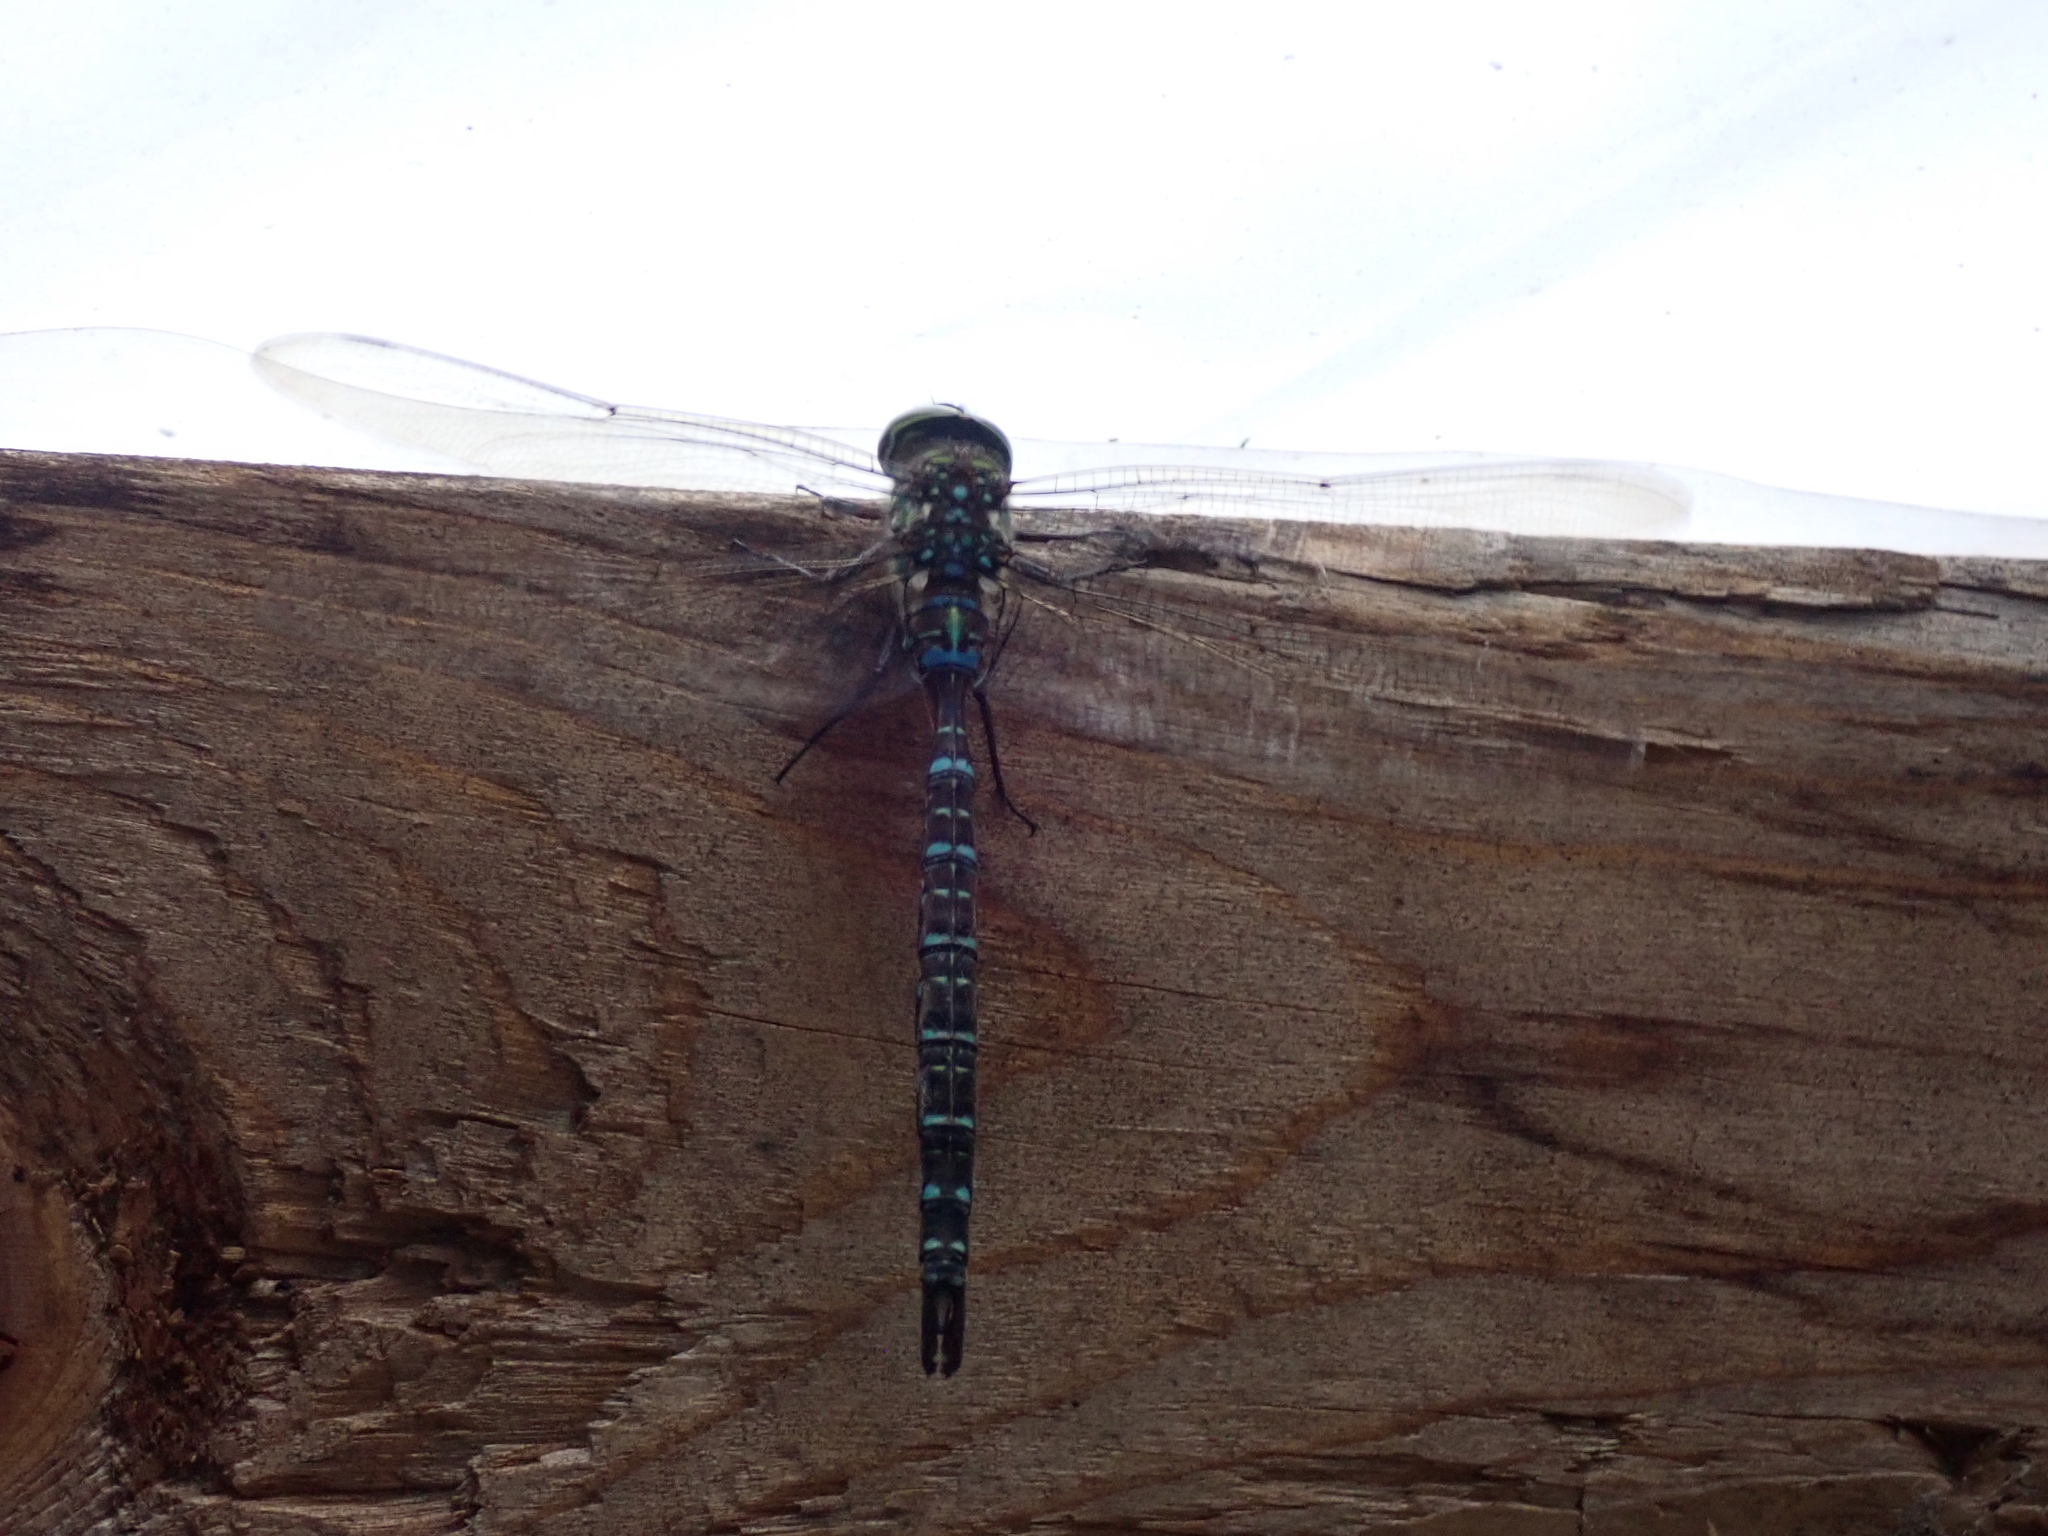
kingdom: Animalia
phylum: Arthropoda
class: Insecta
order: Odonata
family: Aeshnidae
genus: Aeshna
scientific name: Aeshna umbrosa
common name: Shadow darner
